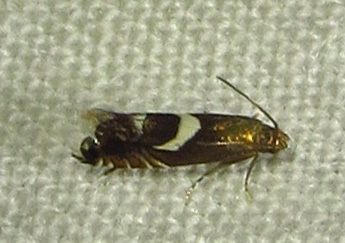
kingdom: Animalia
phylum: Arthropoda
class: Insecta
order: Lepidoptera
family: Glyphipterigidae
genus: Glyphipterix
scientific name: Glyphipterix Diploschizia impigritella
